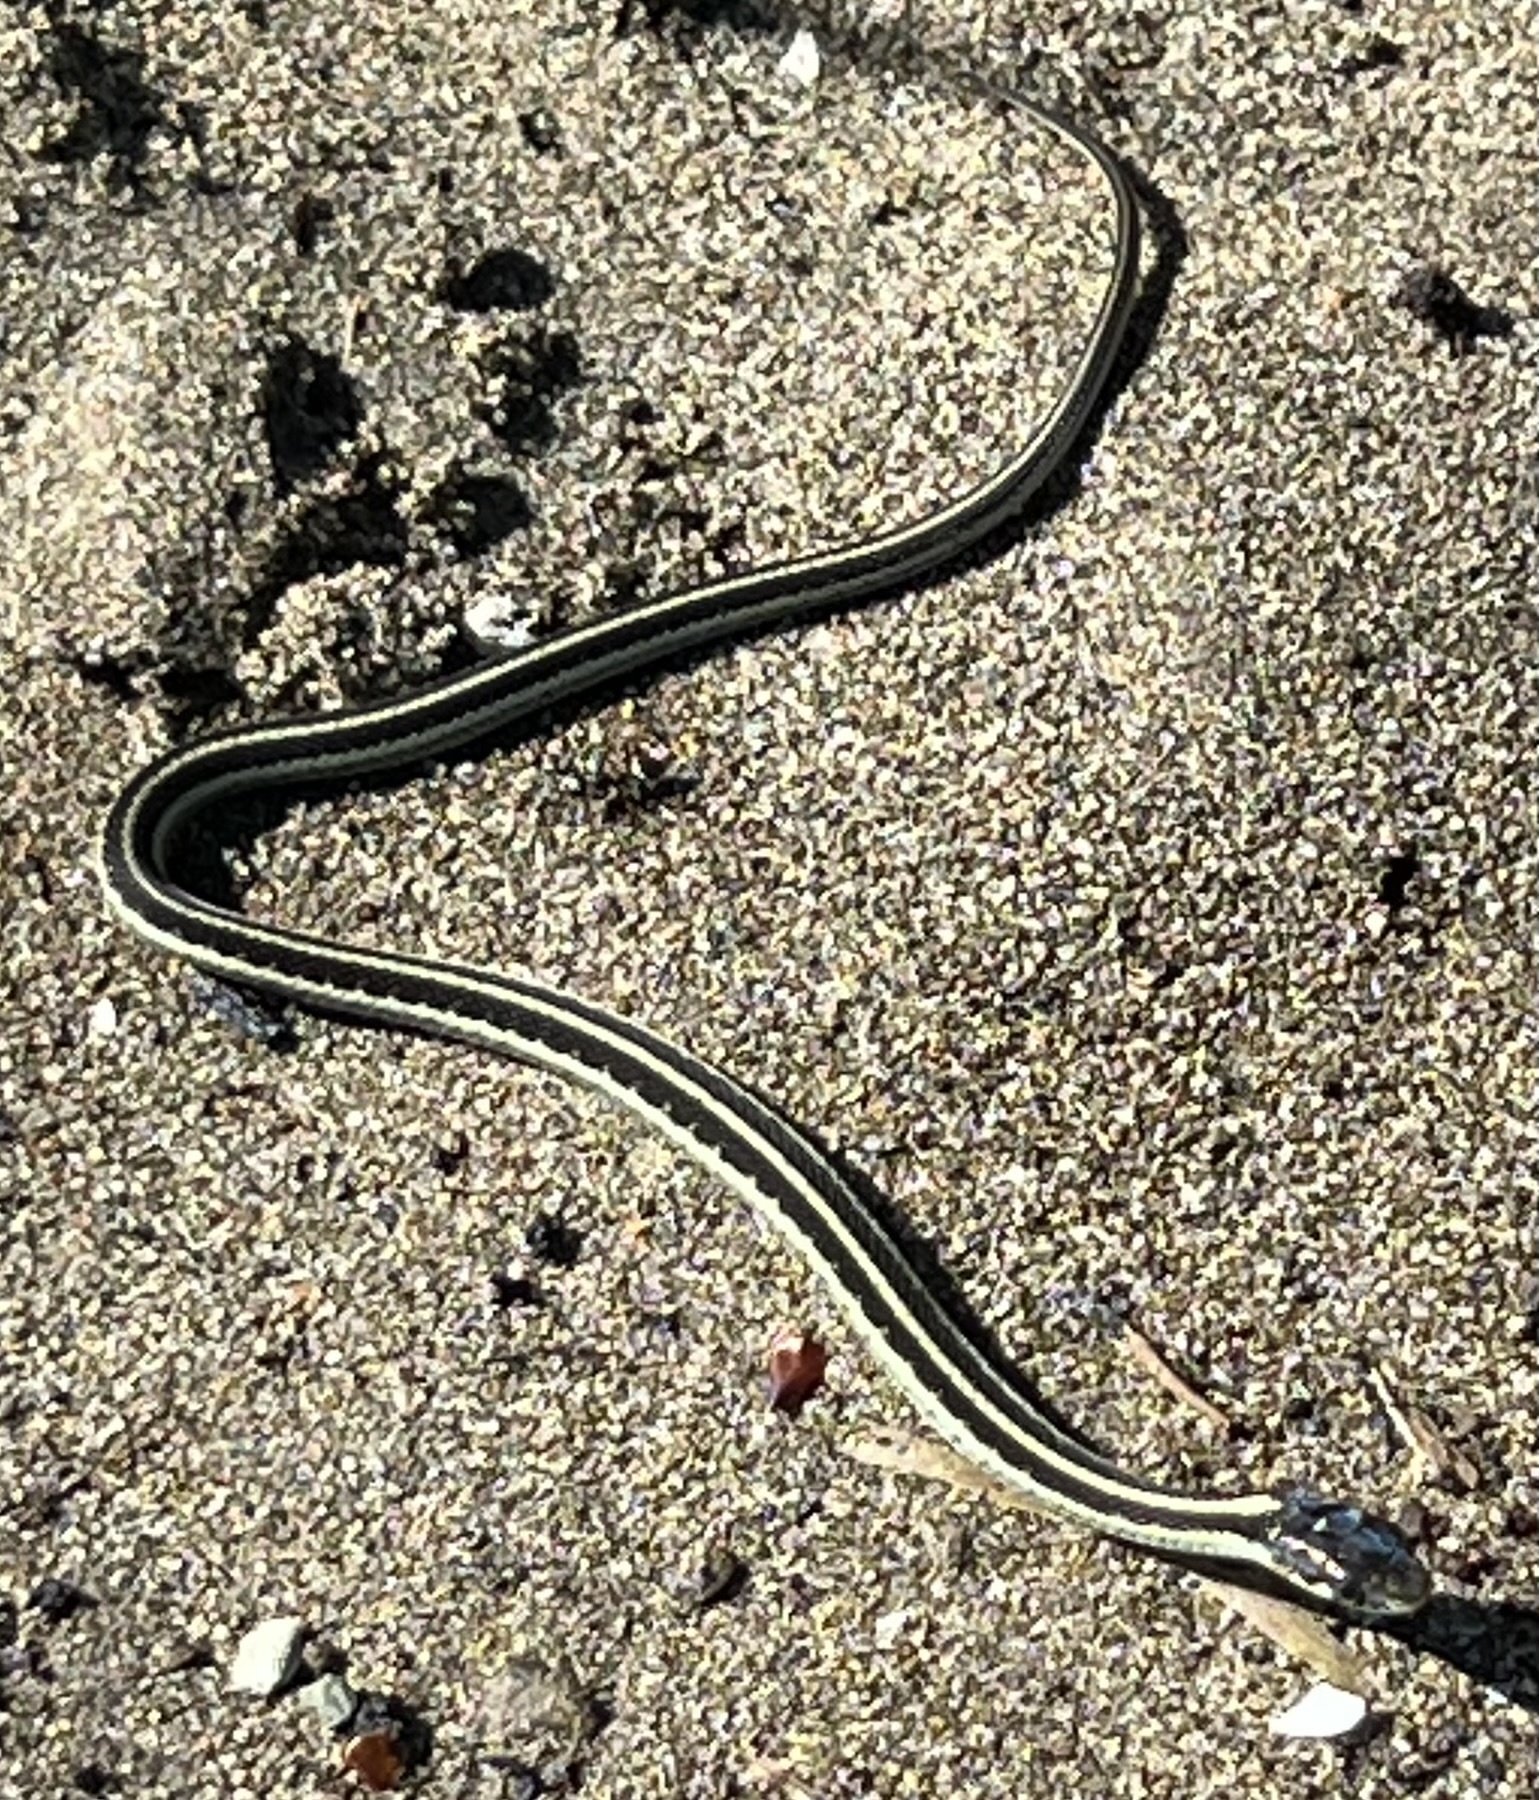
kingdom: Animalia
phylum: Chordata
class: Squamata
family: Colubridae
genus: Thamnophis
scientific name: Thamnophis sirtalis
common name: Common garter snake
